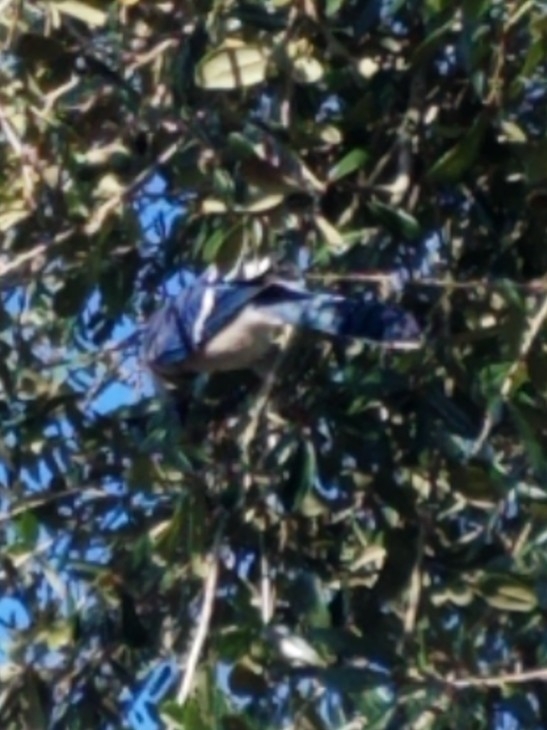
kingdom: Animalia
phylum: Chordata
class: Aves
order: Passeriformes
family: Corvidae
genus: Cyanocitta
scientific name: Cyanocitta cristata
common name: Blue jay
